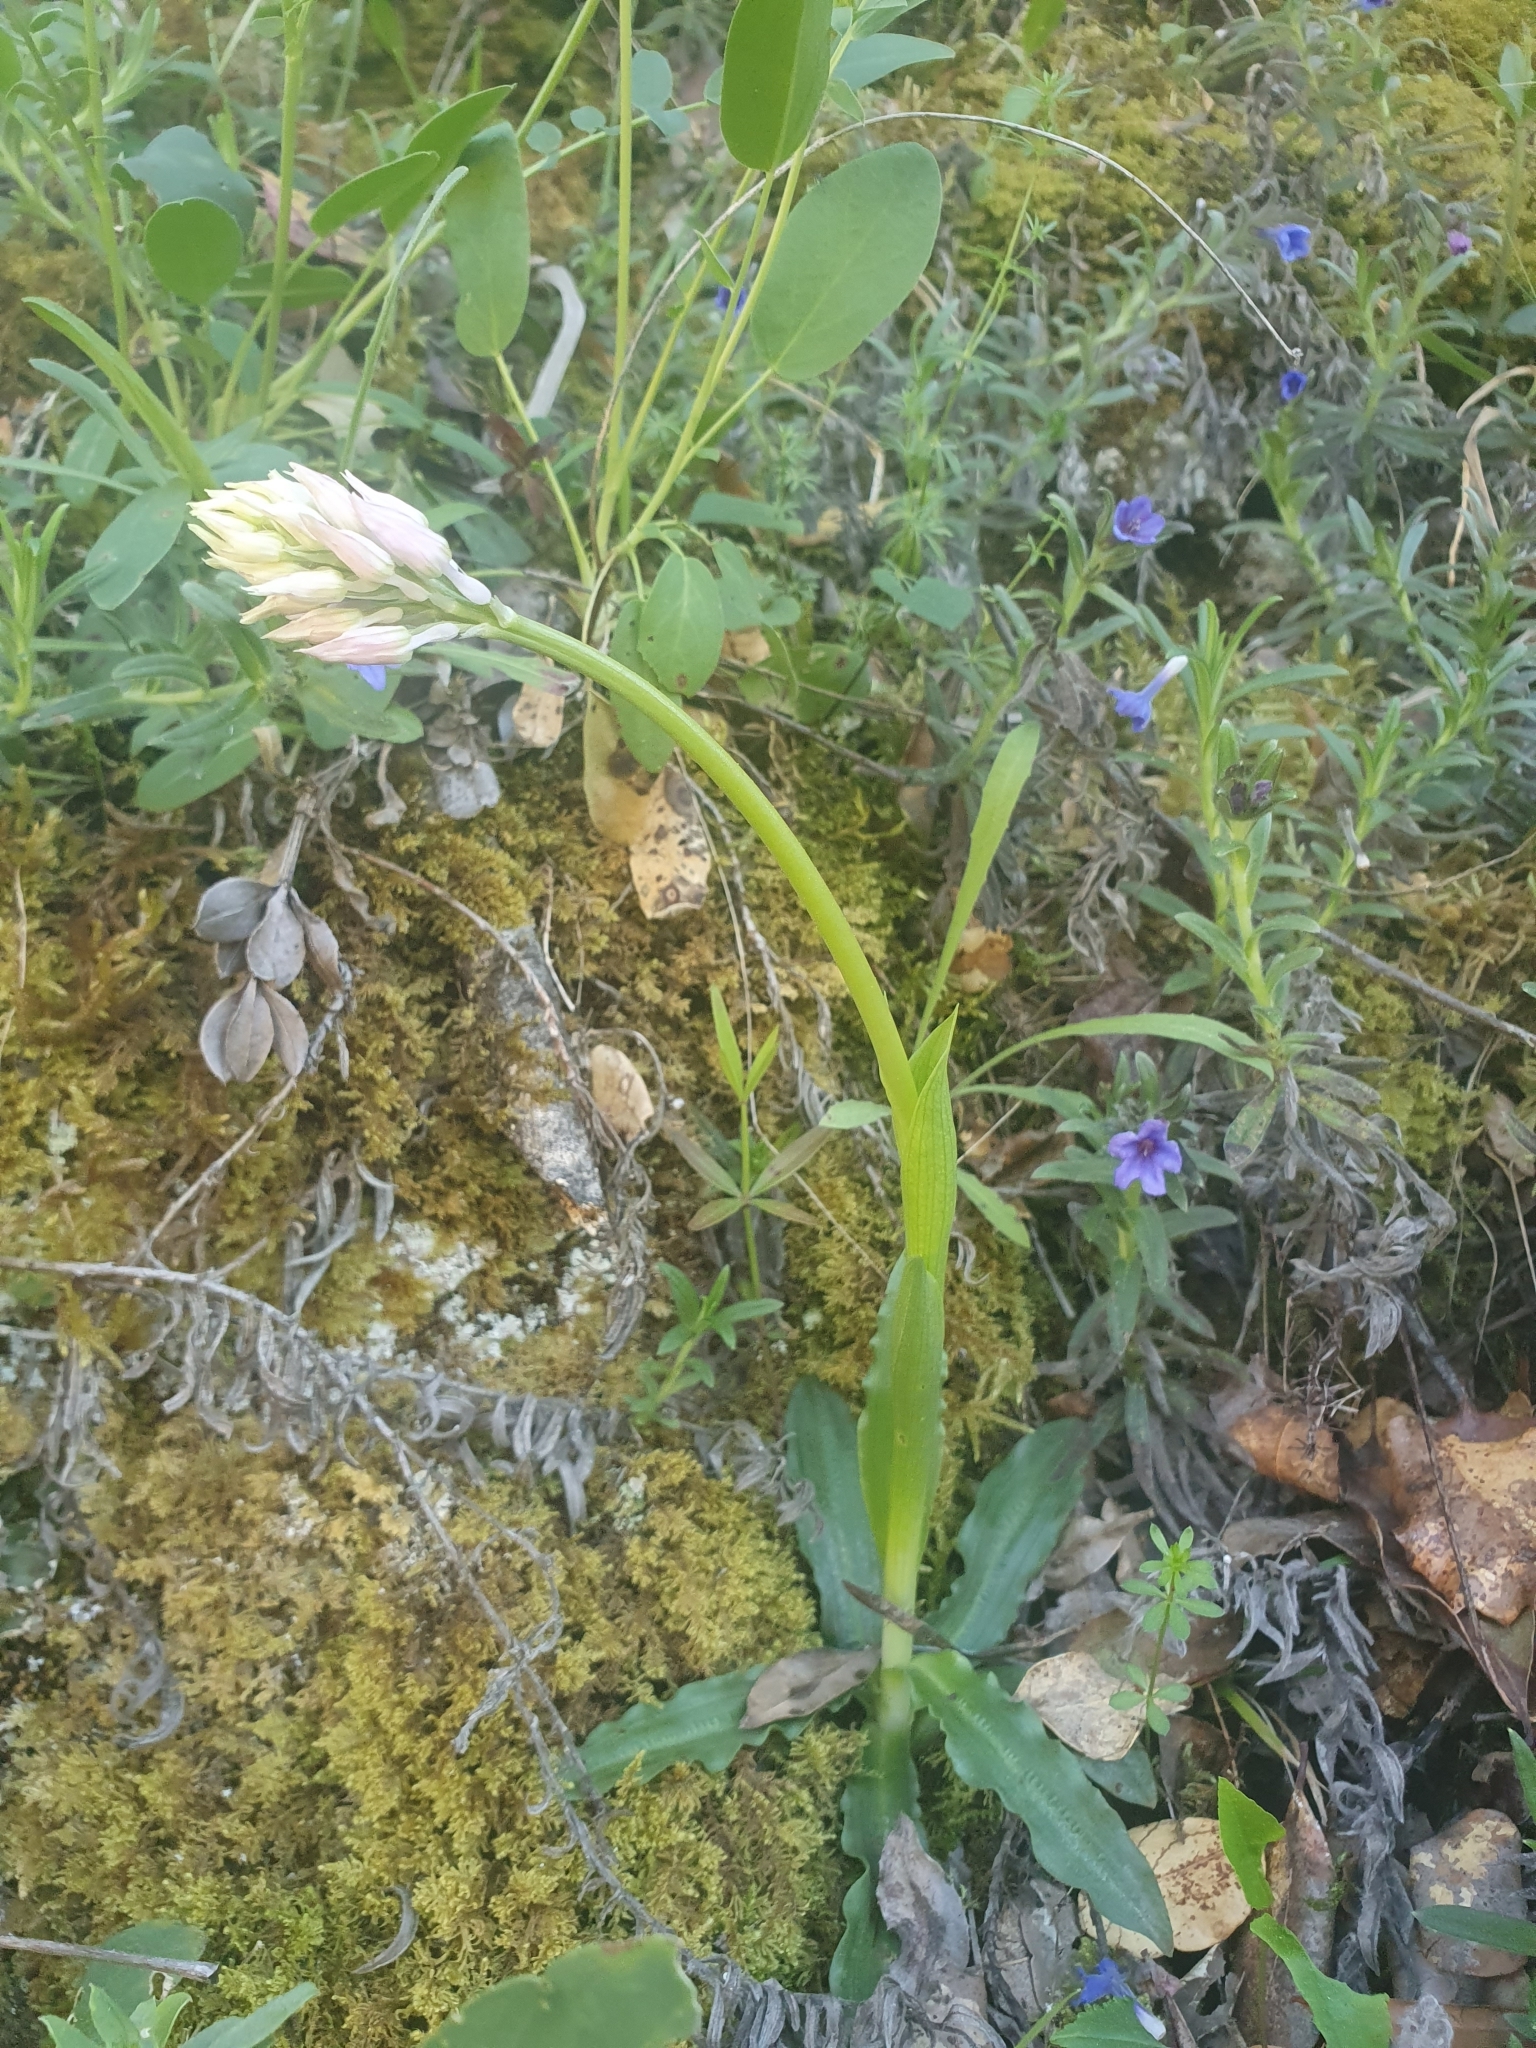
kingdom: Plantae
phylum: Tracheophyta
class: Liliopsida
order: Asparagales
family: Orchidaceae
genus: Orchis
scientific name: Orchis italica
